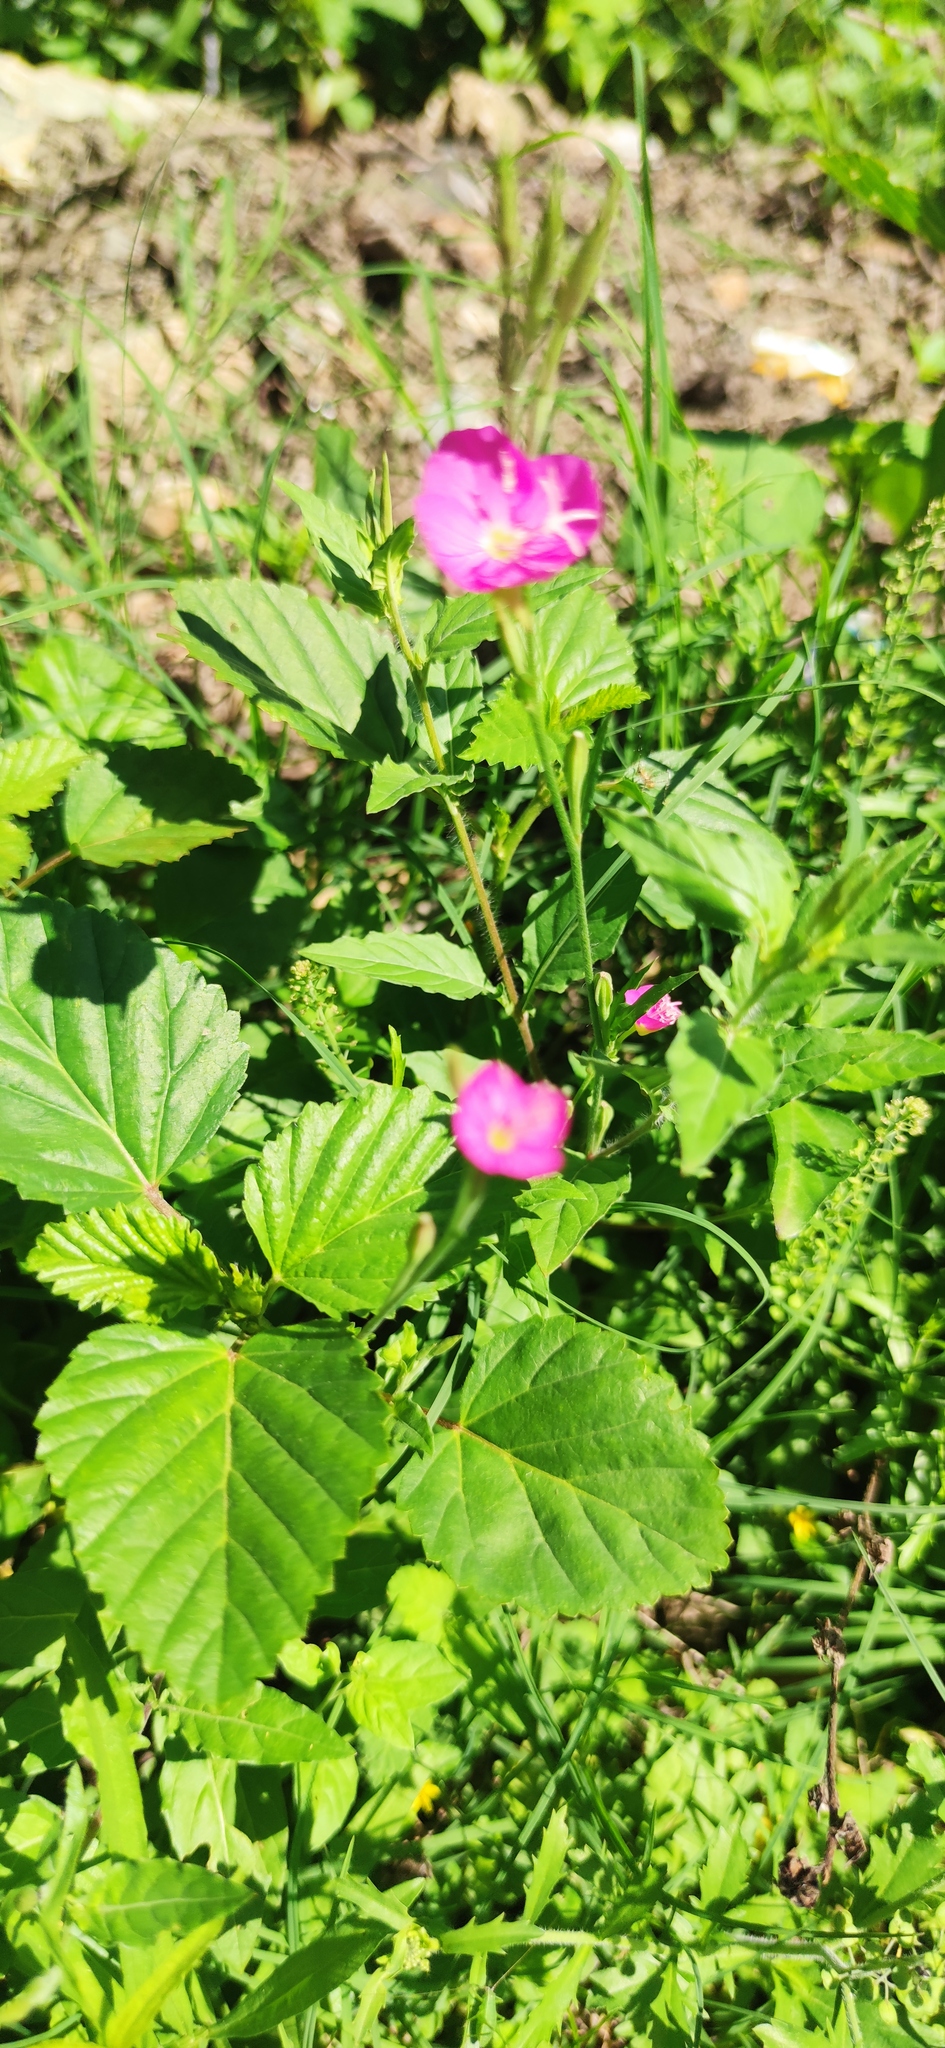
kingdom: Plantae
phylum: Tracheophyta
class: Magnoliopsida
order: Myrtales
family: Onagraceae
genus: Oenothera
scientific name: Oenothera rosea
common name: Rosy evening-primrose
